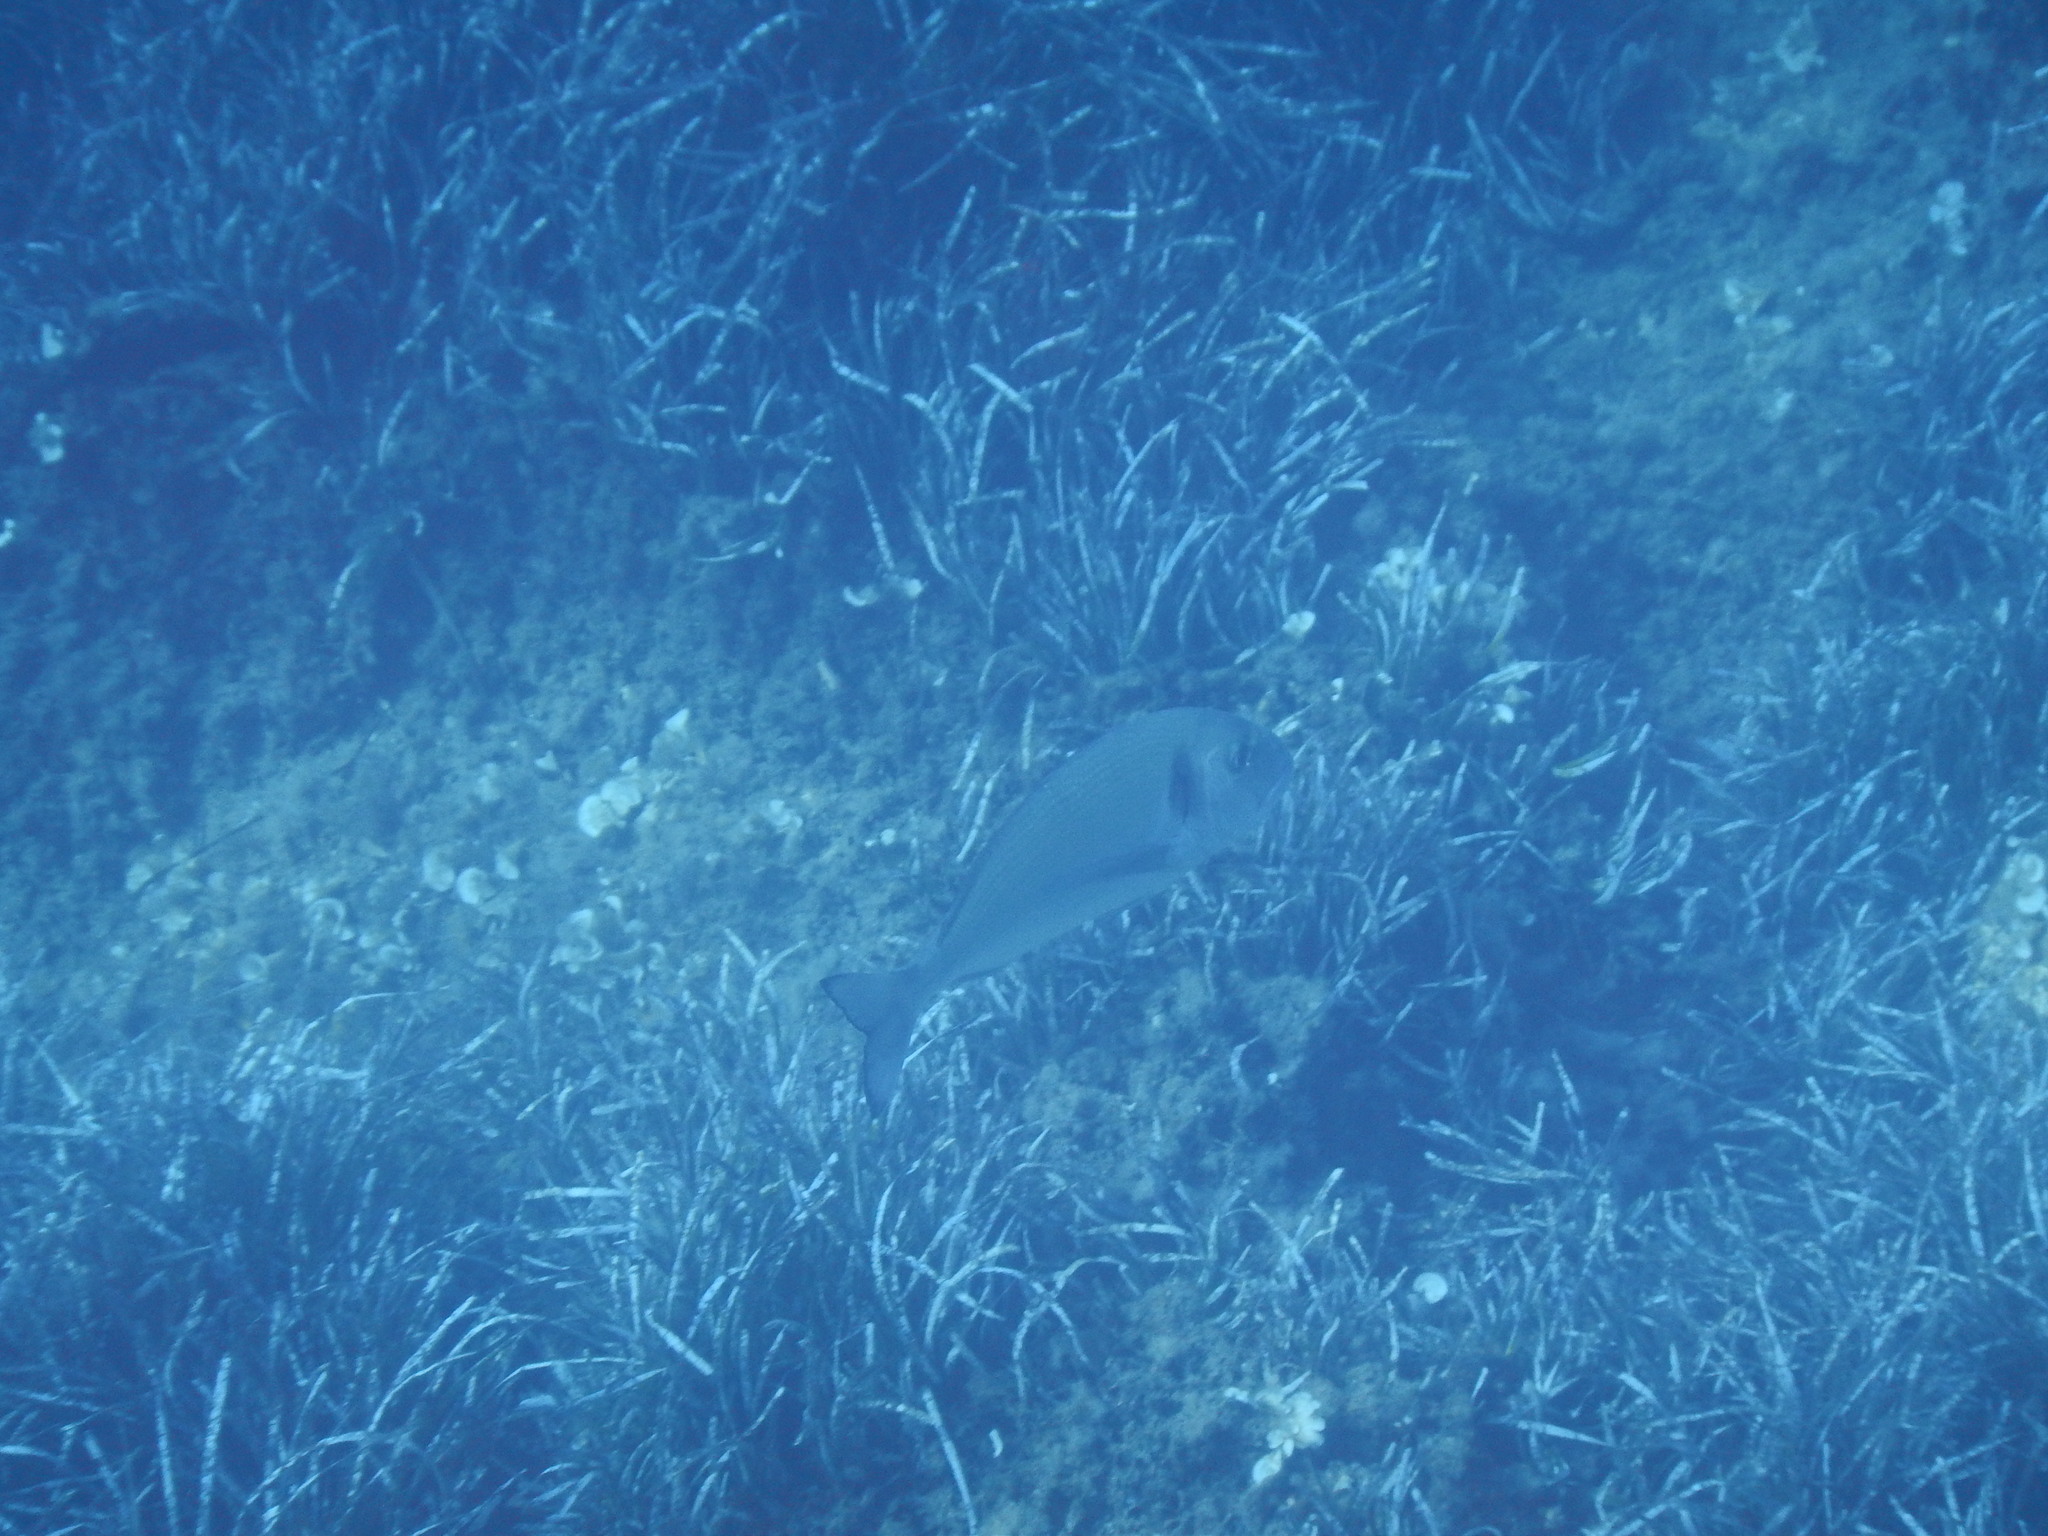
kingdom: Animalia
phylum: Chordata
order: Perciformes
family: Sparidae
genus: Sparus
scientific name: Sparus aurata
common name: Gilthead
